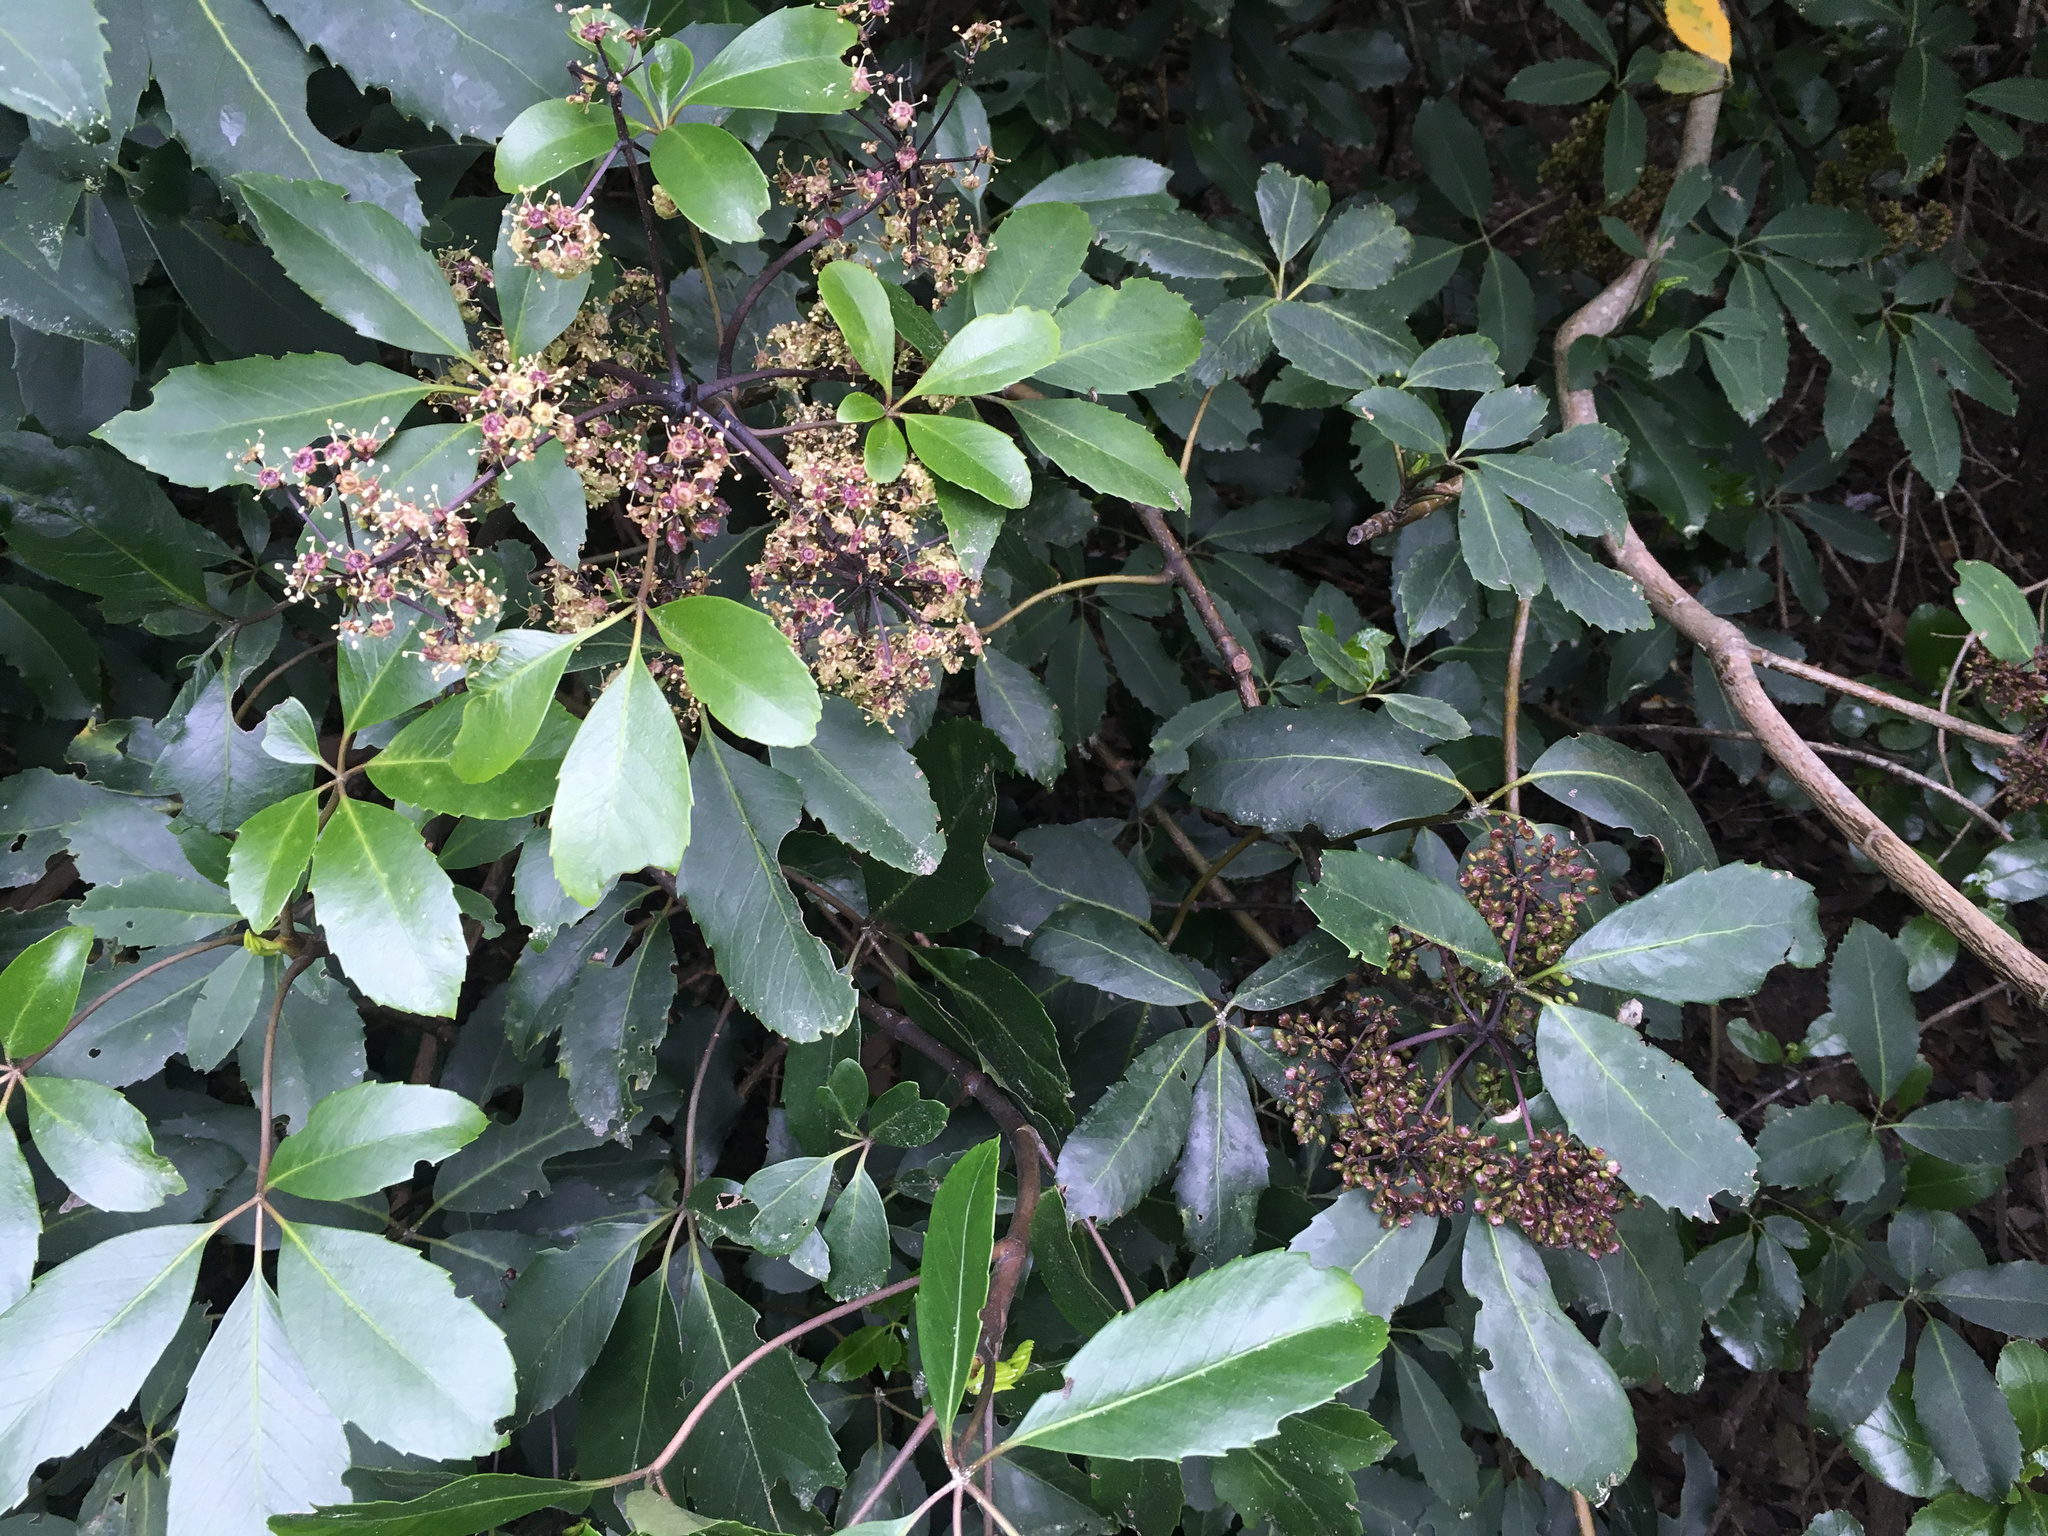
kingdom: Plantae
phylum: Tracheophyta
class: Magnoliopsida
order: Apiales
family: Araliaceae
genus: Neopanax
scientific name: Neopanax arboreus
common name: Five-fingers
